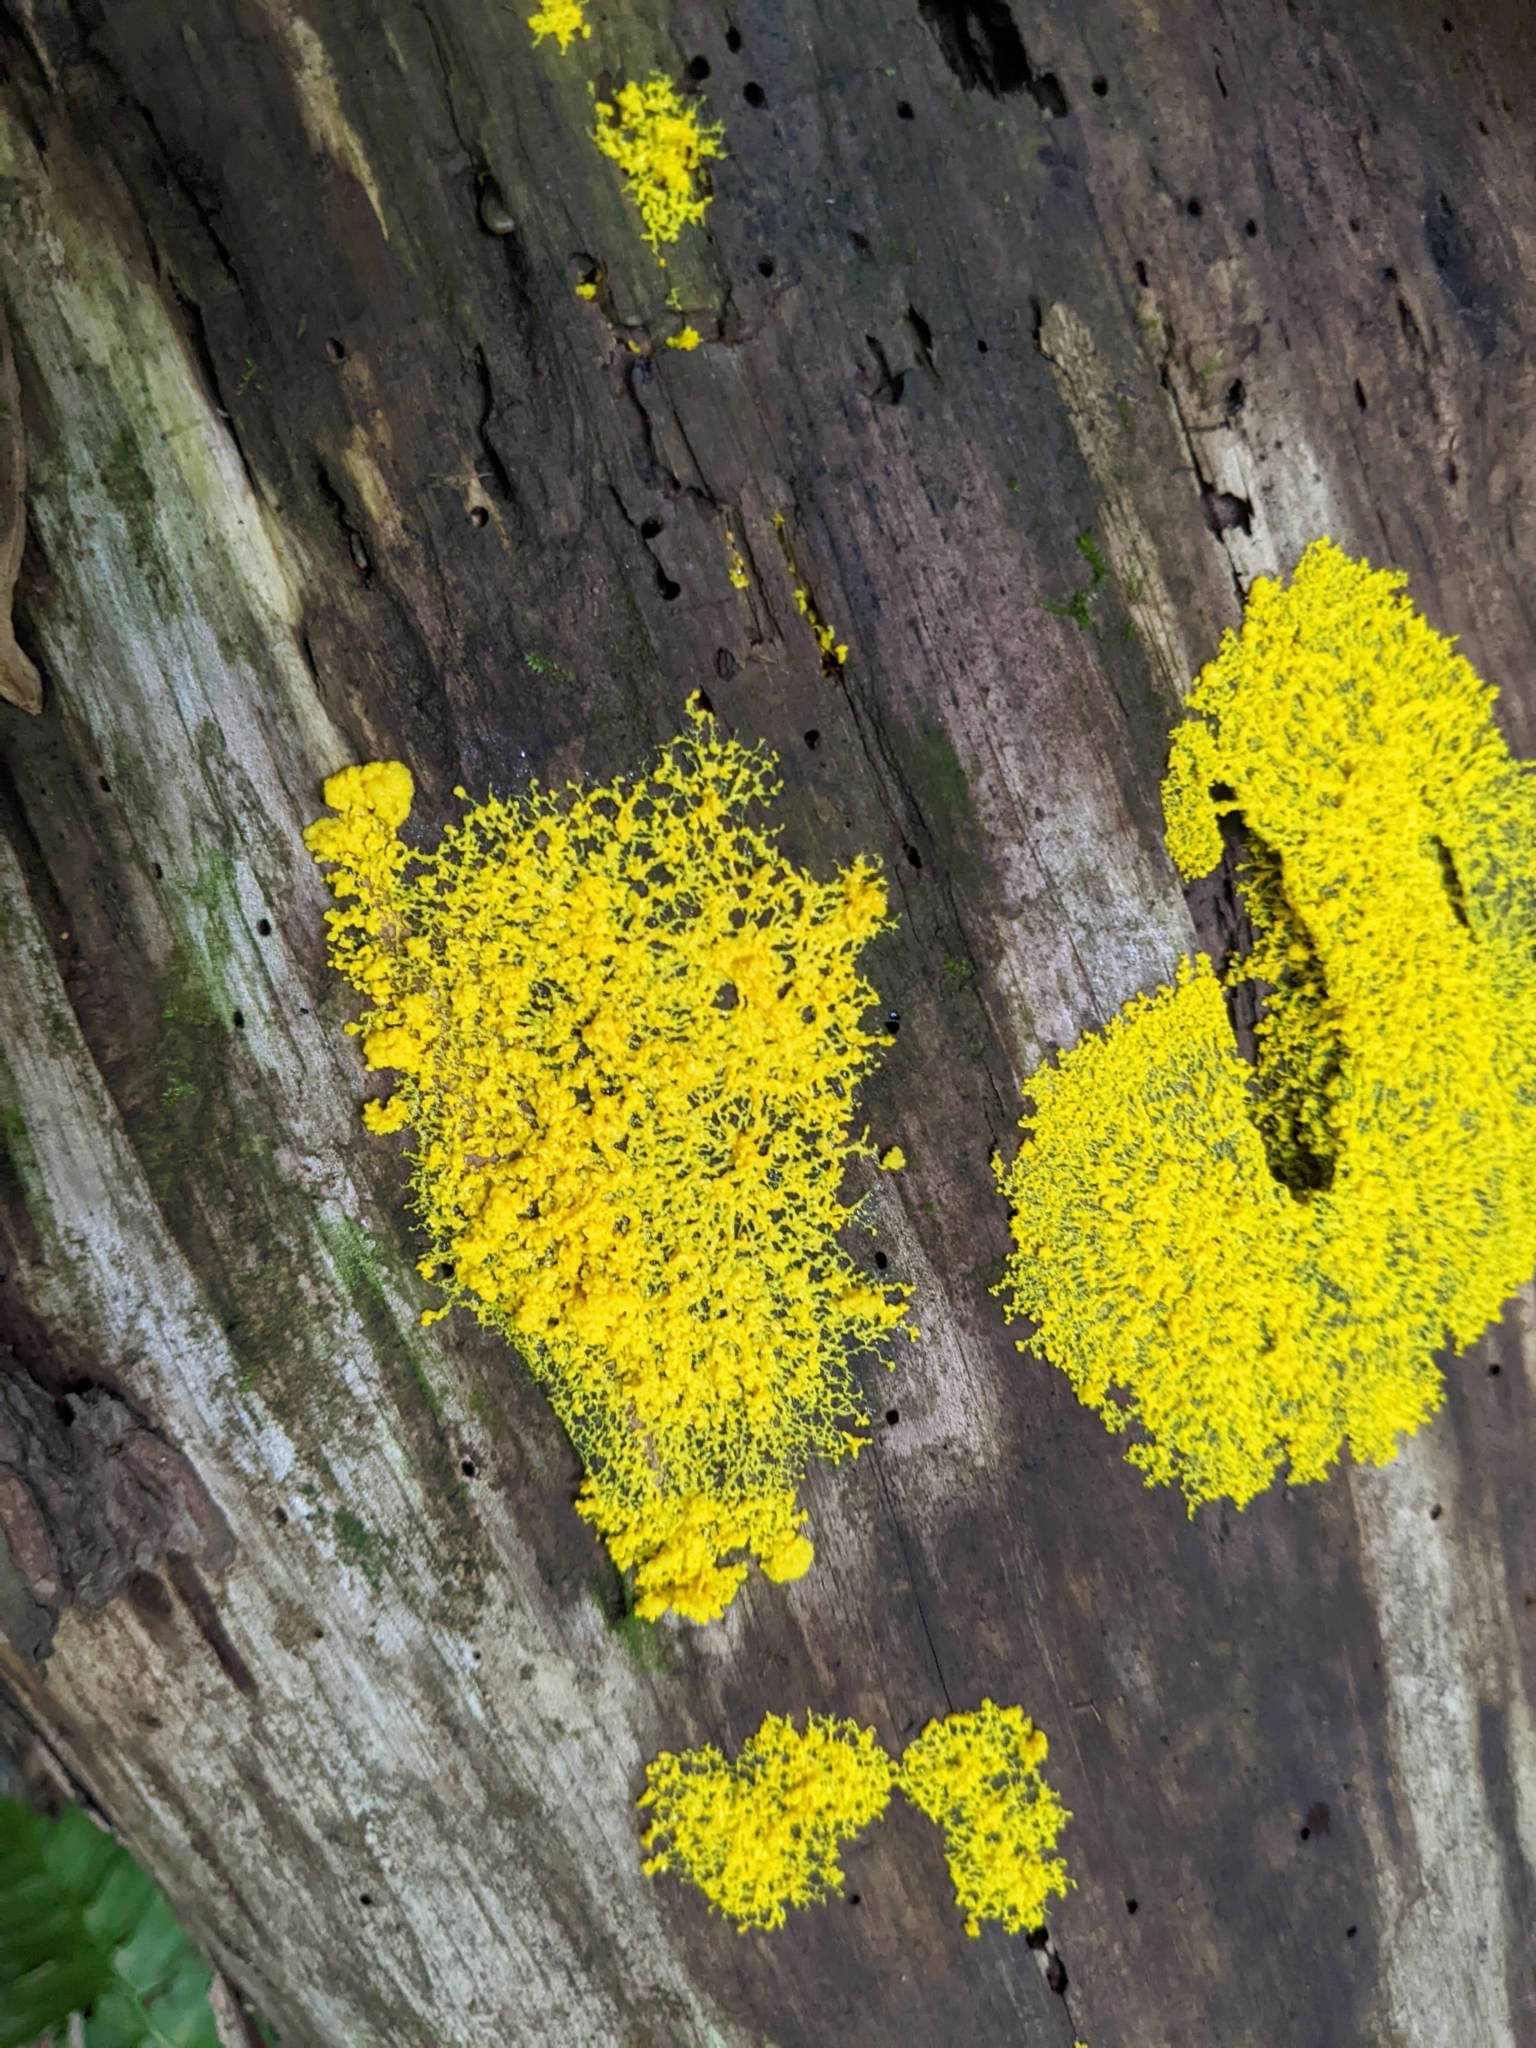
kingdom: Protozoa
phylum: Mycetozoa
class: Myxomycetes
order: Physarales
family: Physaraceae
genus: Fuligo
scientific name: Fuligo septica
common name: Dog vomit slime mold
